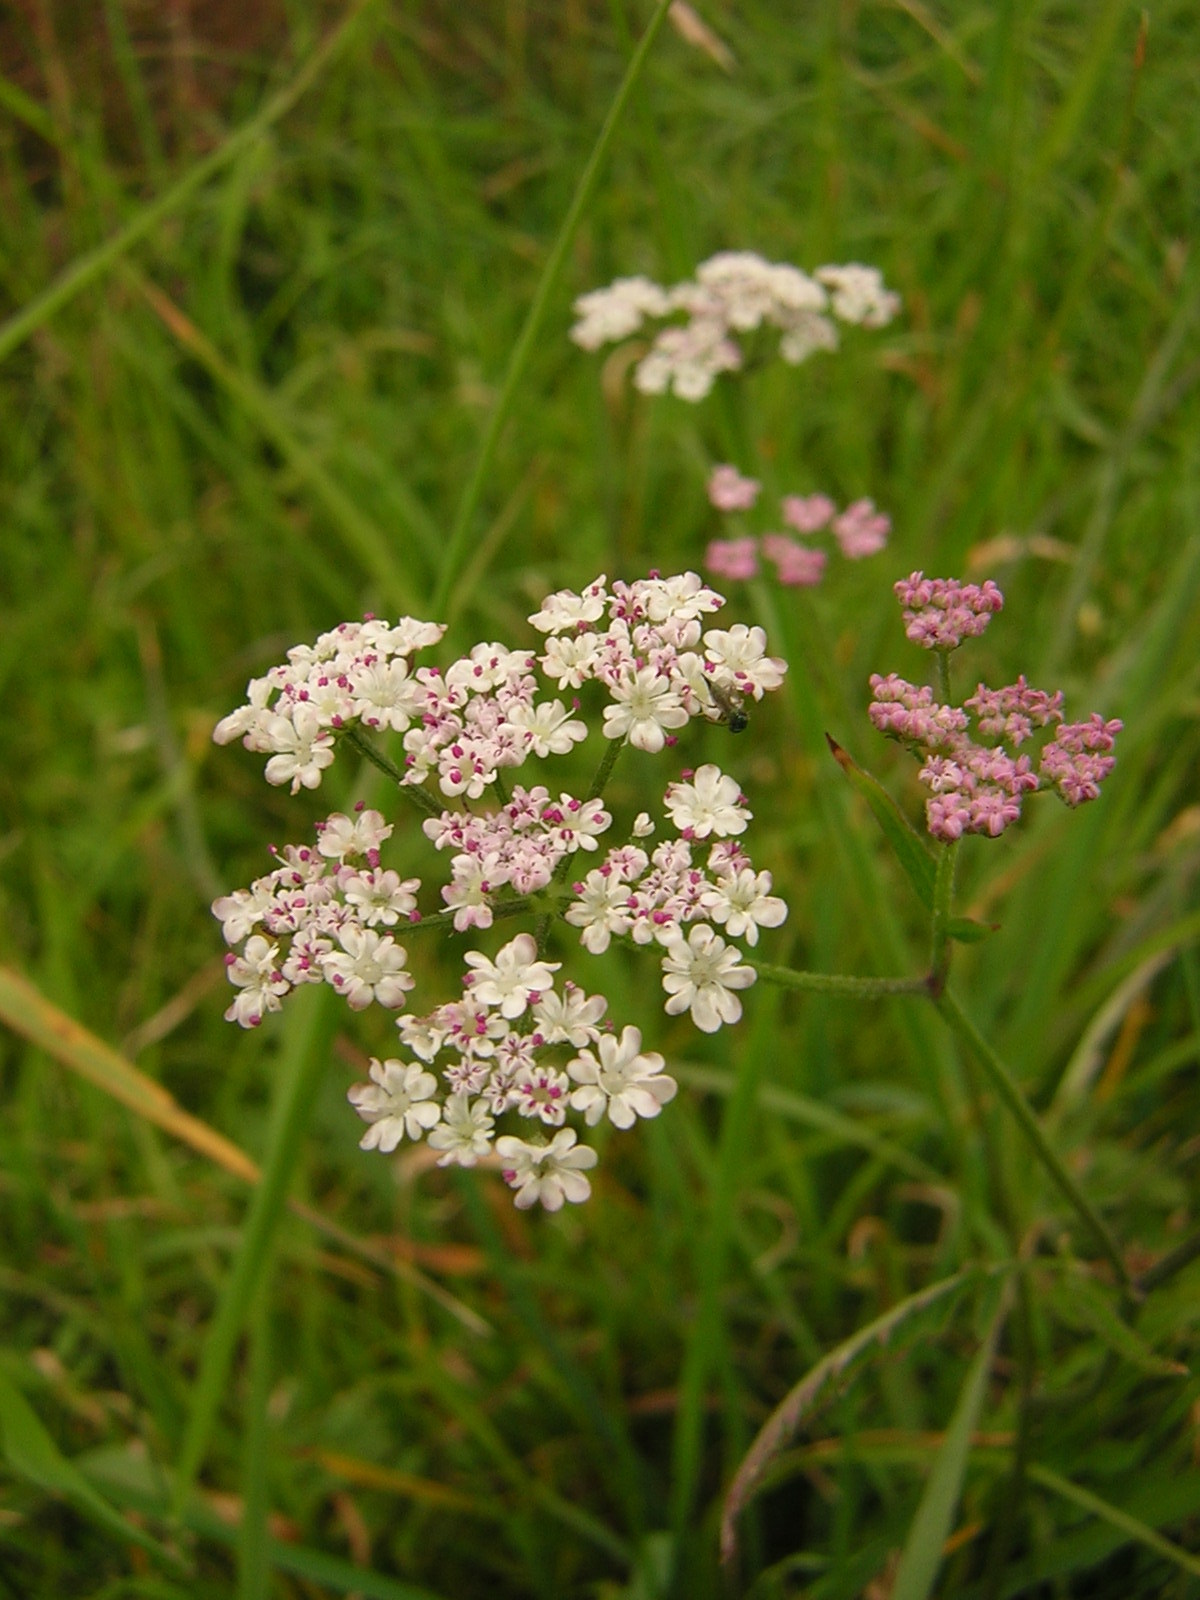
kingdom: Plantae
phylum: Tracheophyta
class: Magnoliopsida
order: Apiales
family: Apiaceae
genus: Torilis
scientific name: Torilis japonica
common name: Upright hedge-parsley
